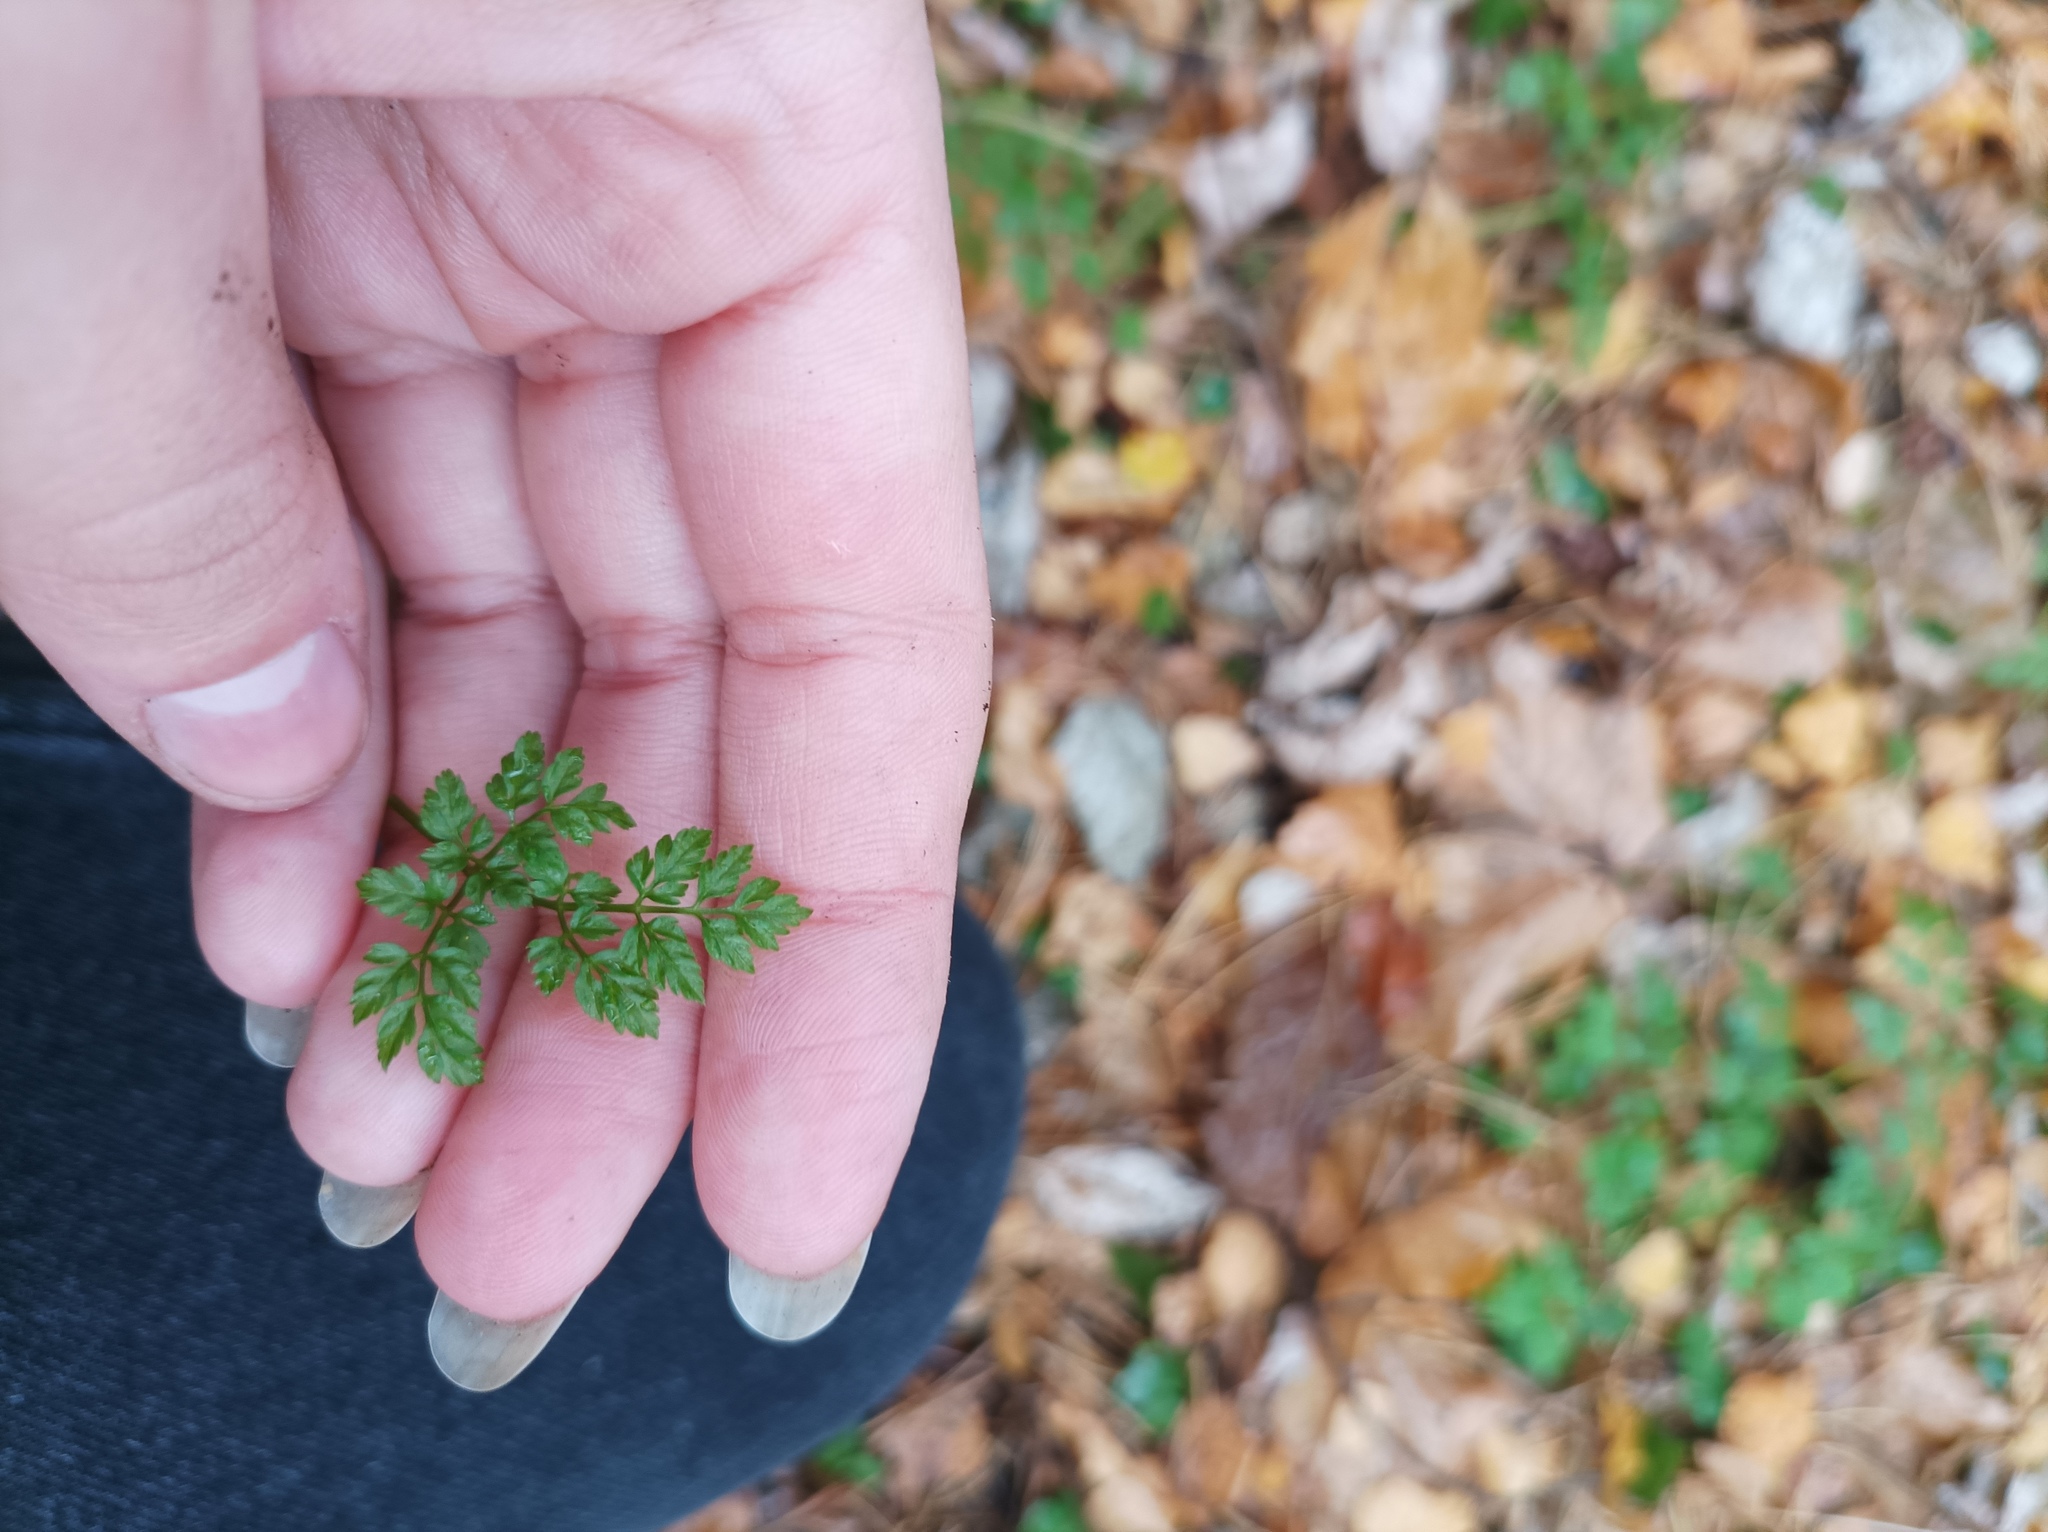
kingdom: Plantae
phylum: Tracheophyta
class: Magnoliopsida
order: Apiales
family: Apiaceae
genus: Anthriscus
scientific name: Anthriscus sylvestris
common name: Cow parsley
